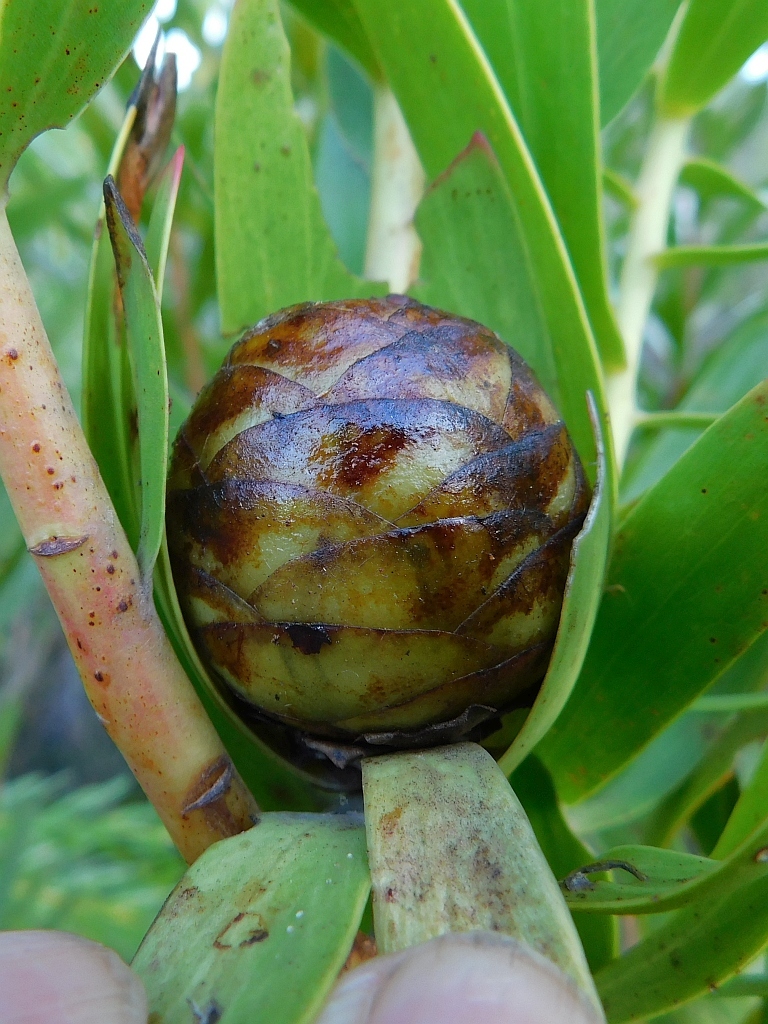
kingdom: Plantae
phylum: Tracheophyta
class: Magnoliopsida
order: Proteales
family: Proteaceae
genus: Leucadendron
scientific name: Leucadendron microcephalum
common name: Oilbract conebush
